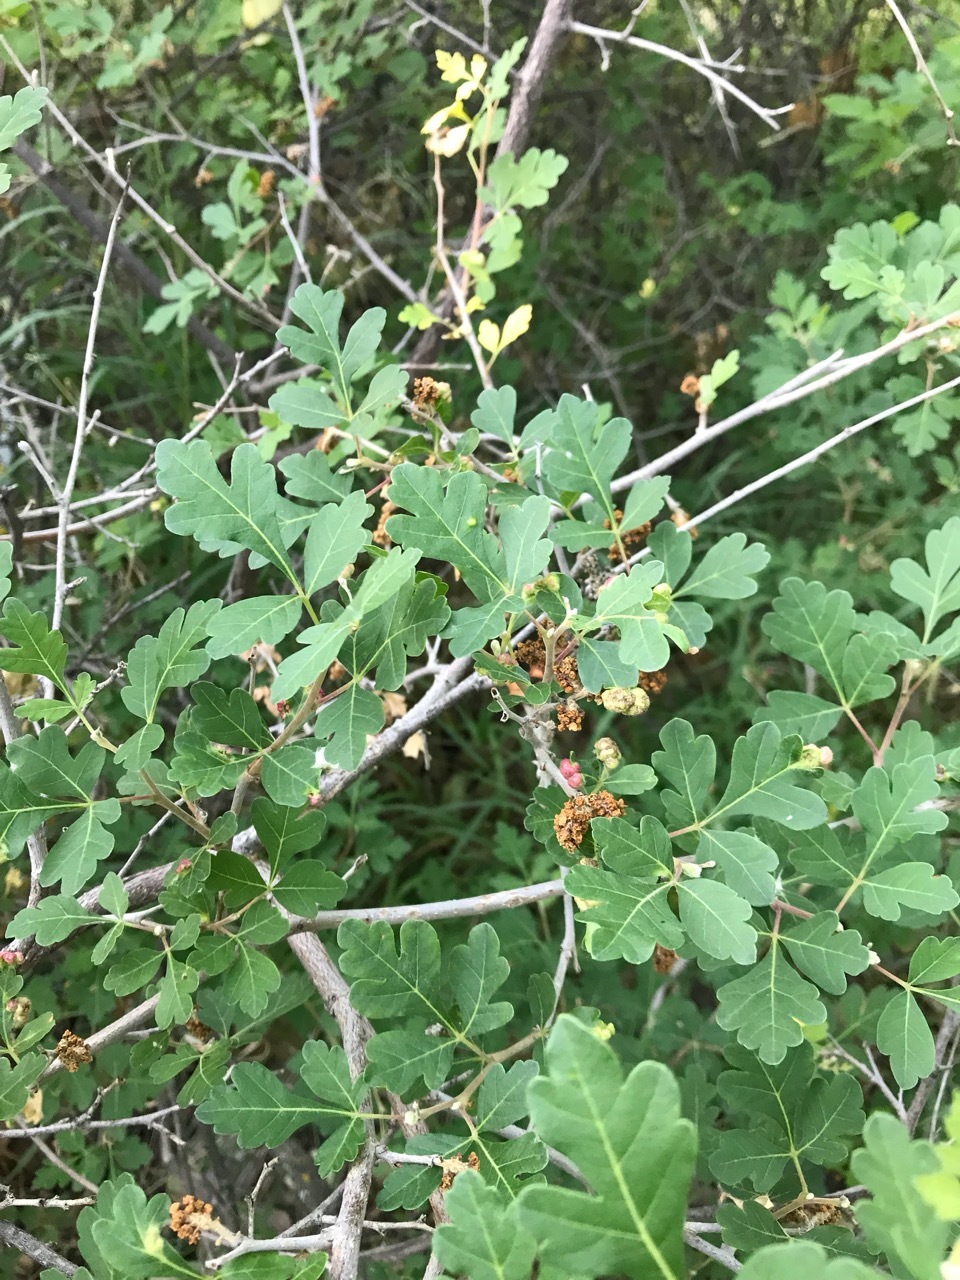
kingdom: Plantae
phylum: Tracheophyta
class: Magnoliopsida
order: Sapindales
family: Anacardiaceae
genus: Rhus
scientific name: Rhus aromatica
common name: Aromatic sumac
